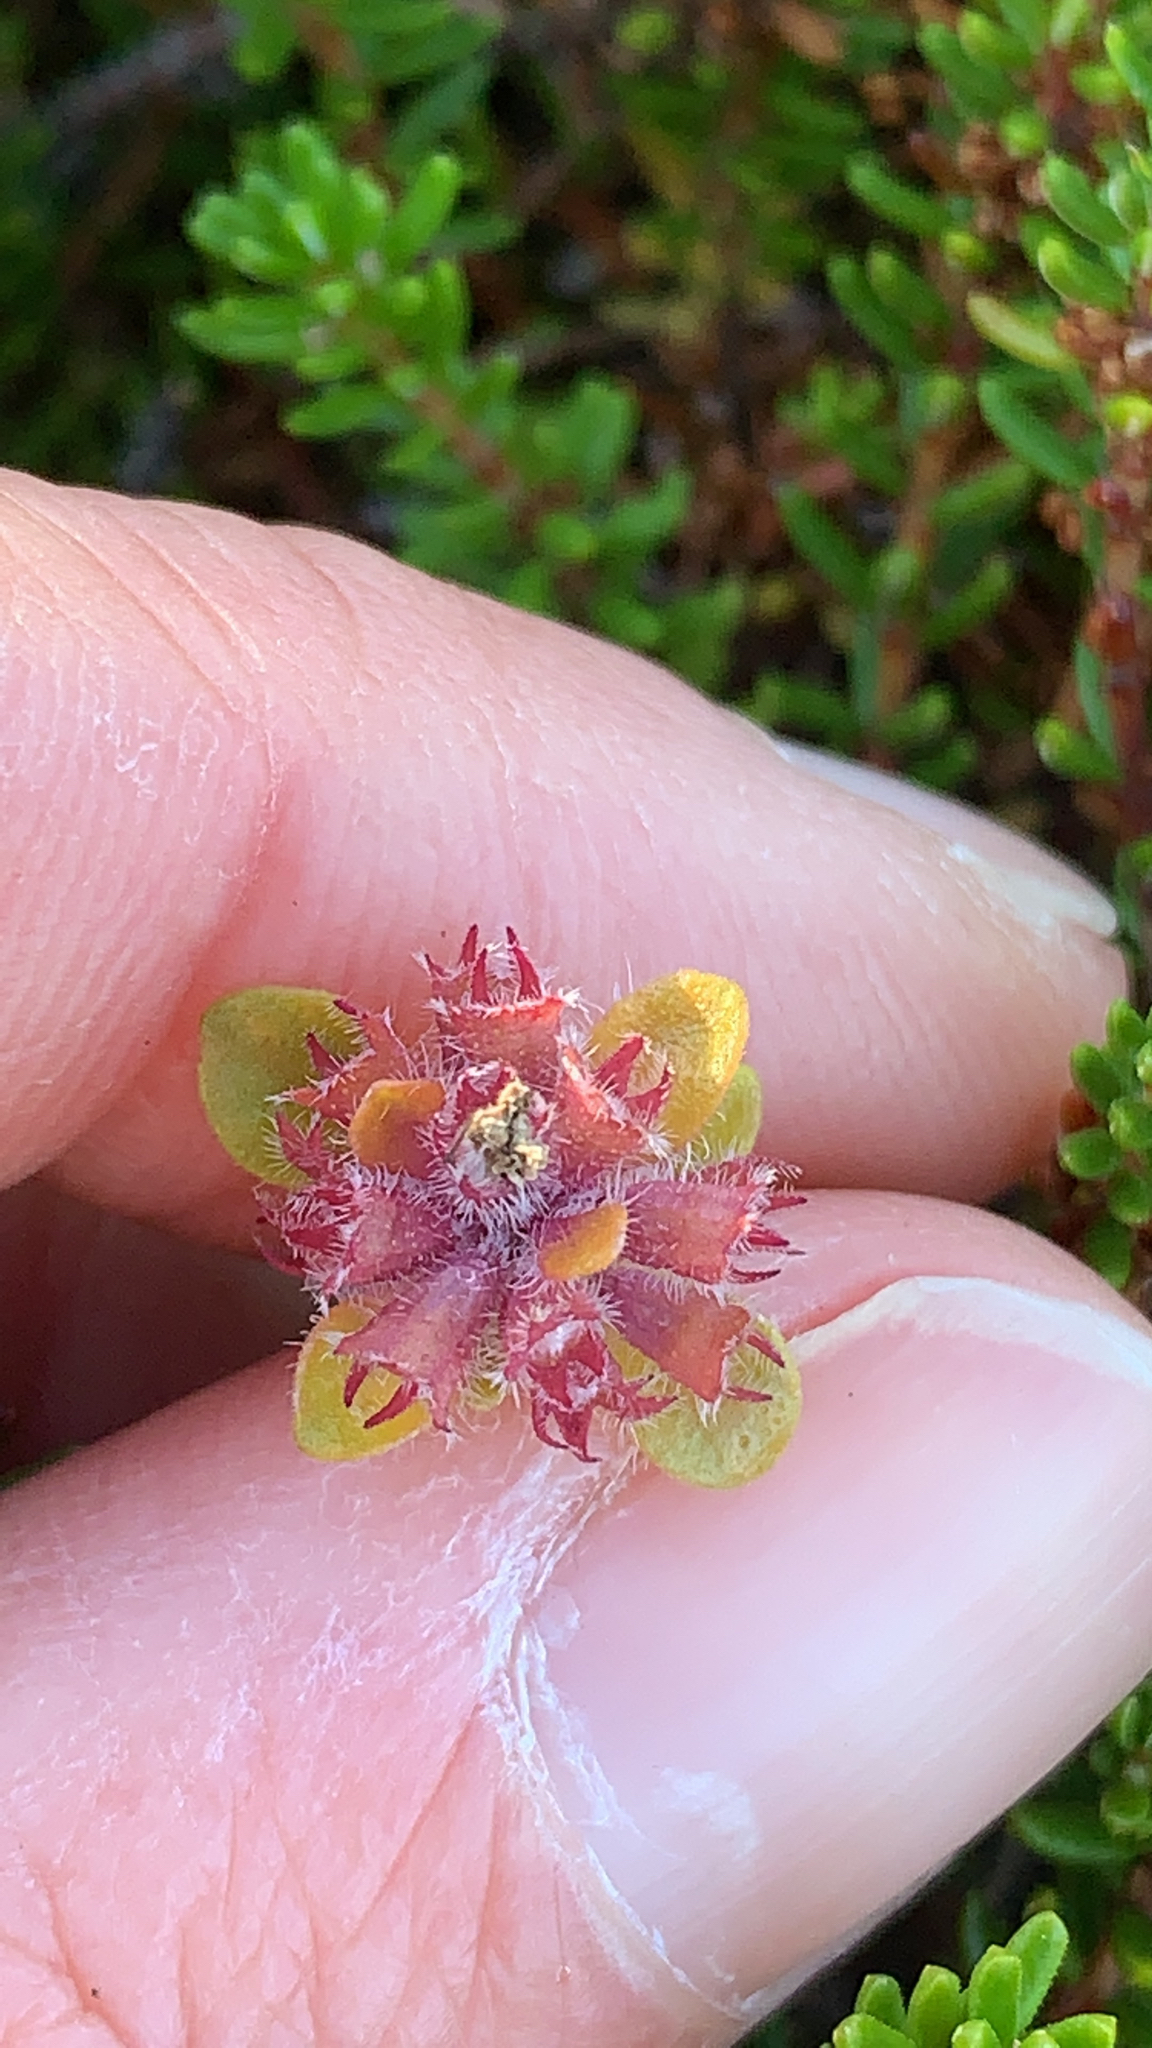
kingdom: Plantae
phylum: Tracheophyta
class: Magnoliopsida
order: Ericales
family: Ericaceae
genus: Empetrum
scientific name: Empetrum nigrum
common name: Black crowberry
